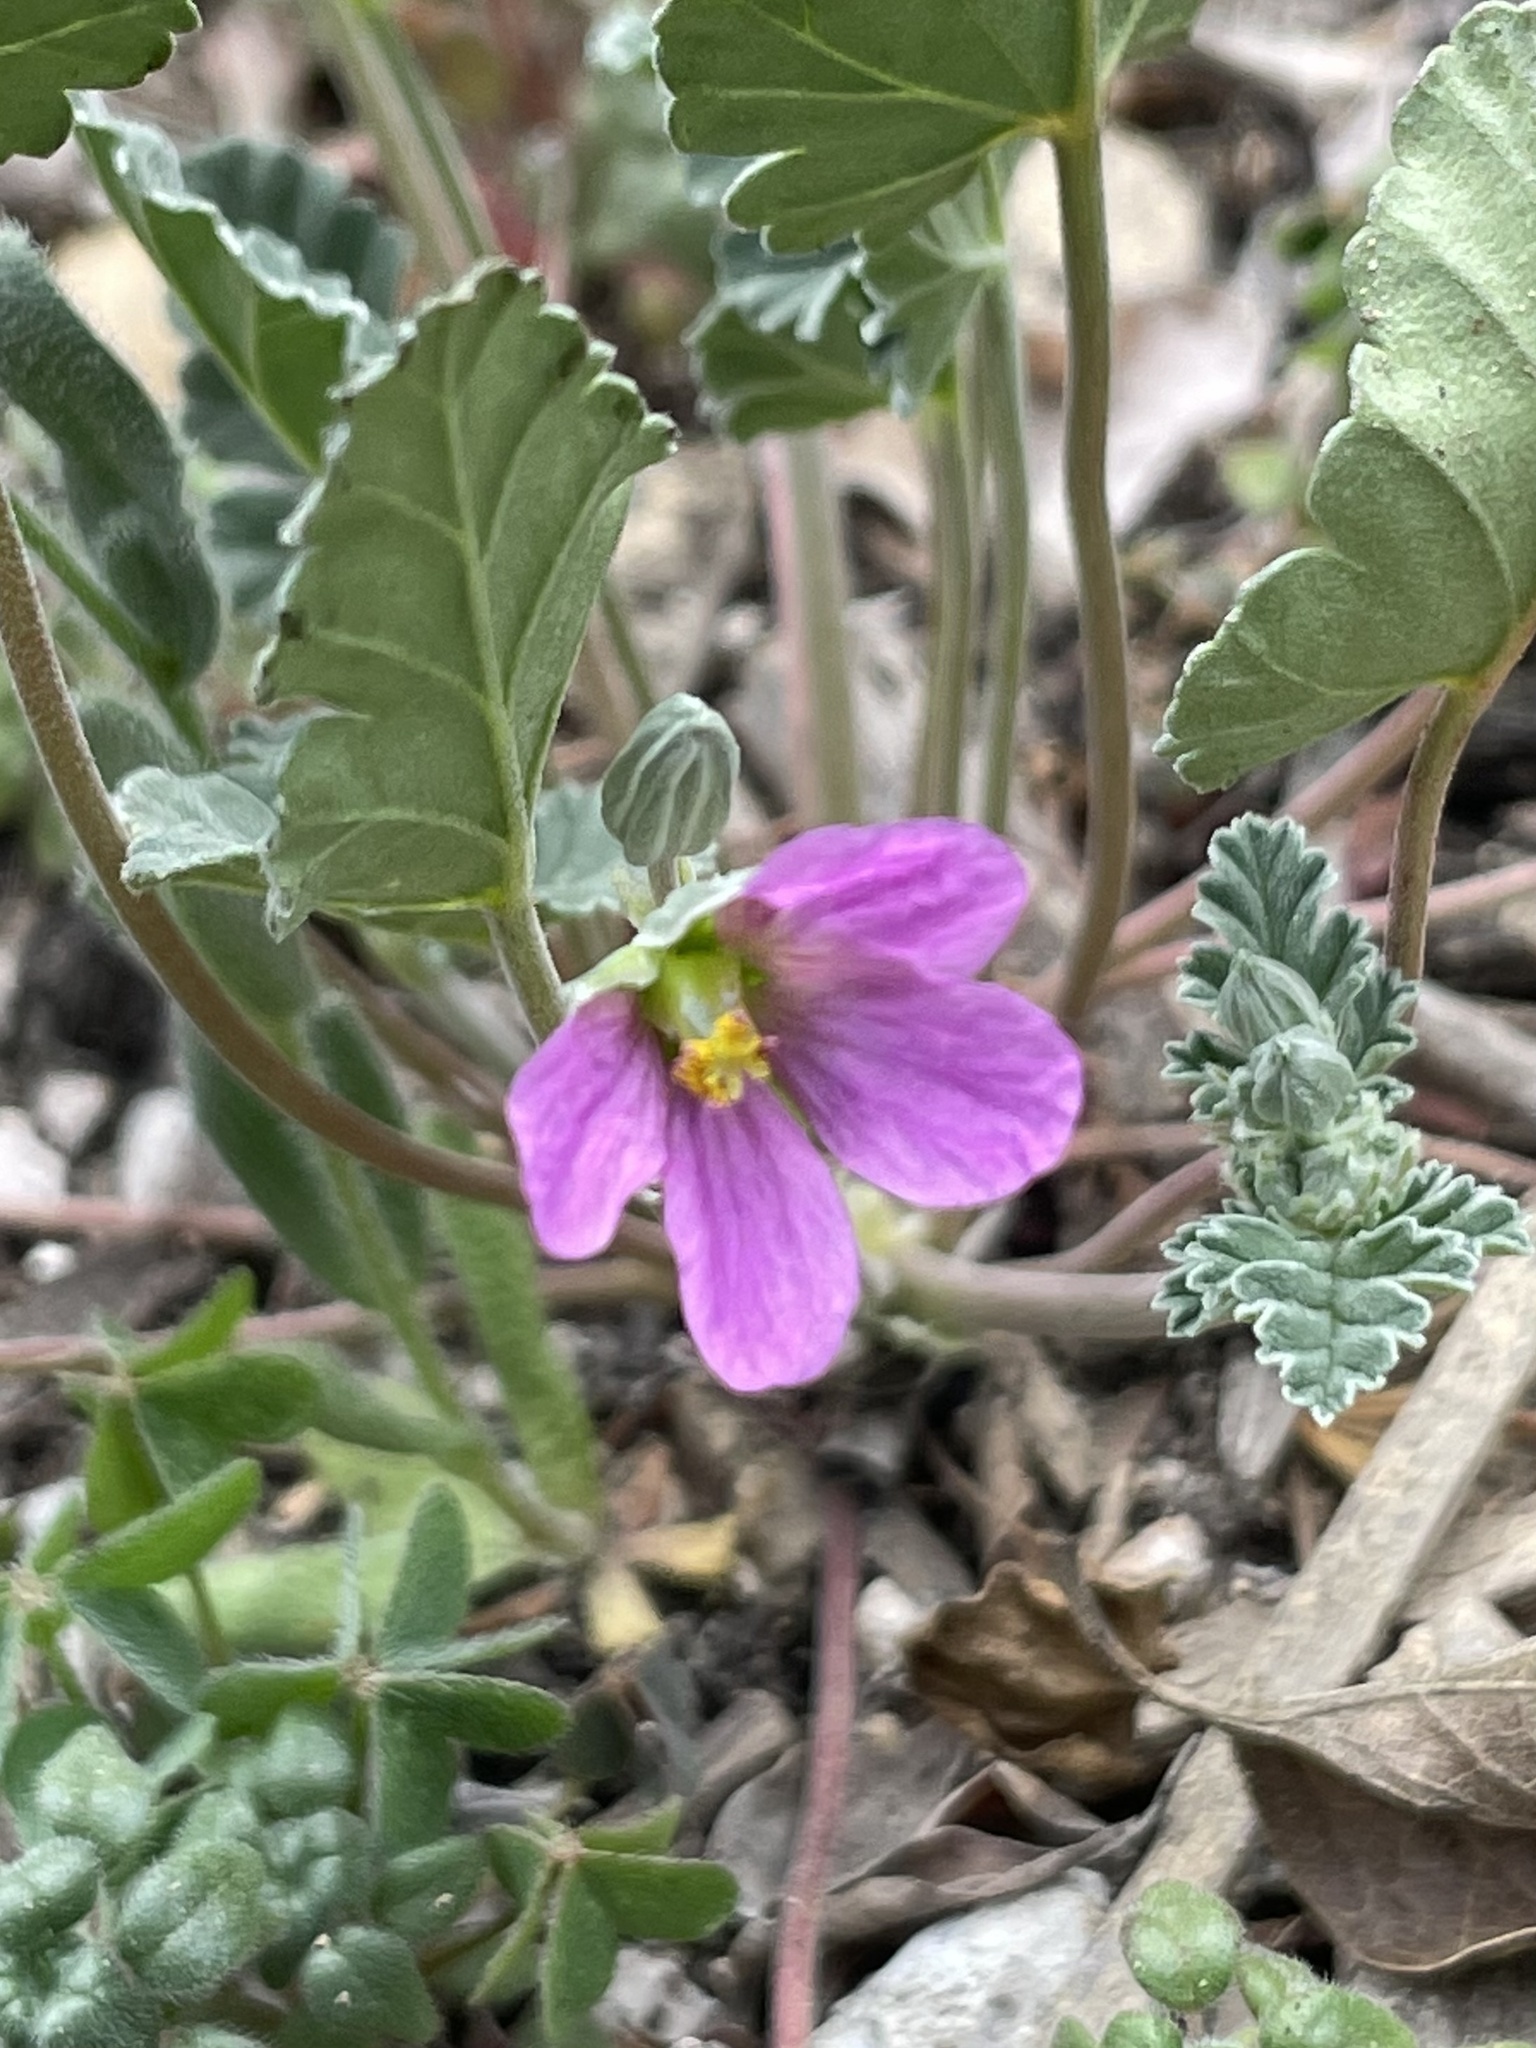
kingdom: Plantae
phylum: Tracheophyta
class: Magnoliopsida
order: Geraniales
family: Geraniaceae
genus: Erodium
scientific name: Erodium texanum
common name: Texas stork's-bill
